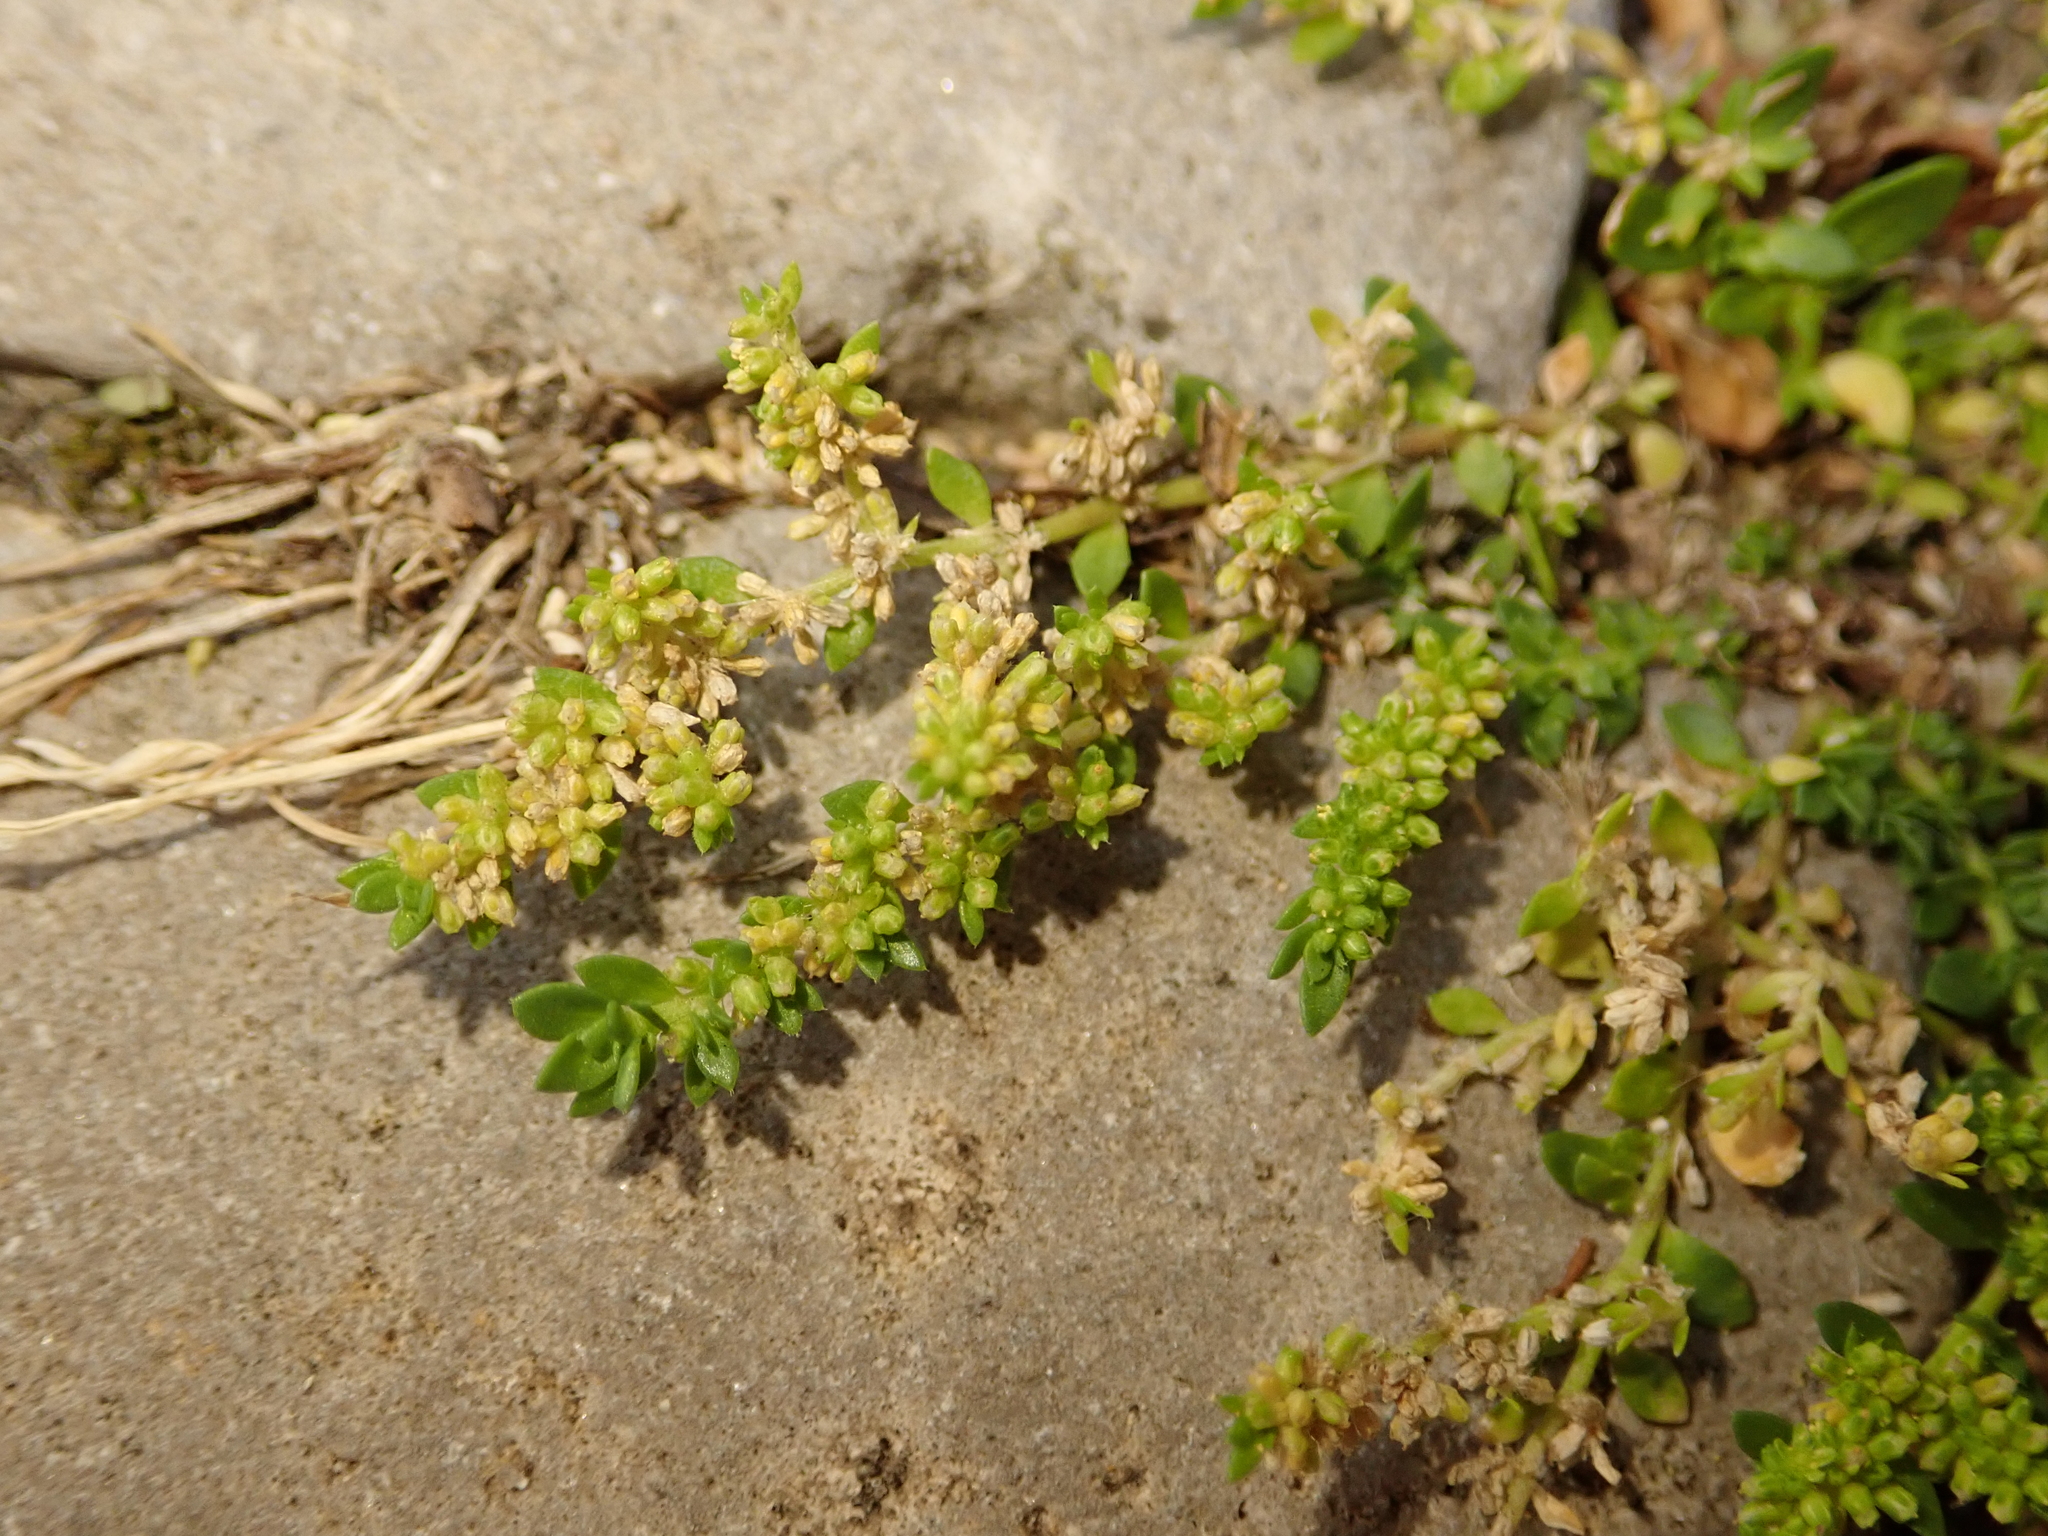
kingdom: Plantae
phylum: Tracheophyta
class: Magnoliopsida
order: Caryophyllales
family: Caryophyllaceae
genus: Herniaria
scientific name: Herniaria glabra
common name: Smooth rupturewort
